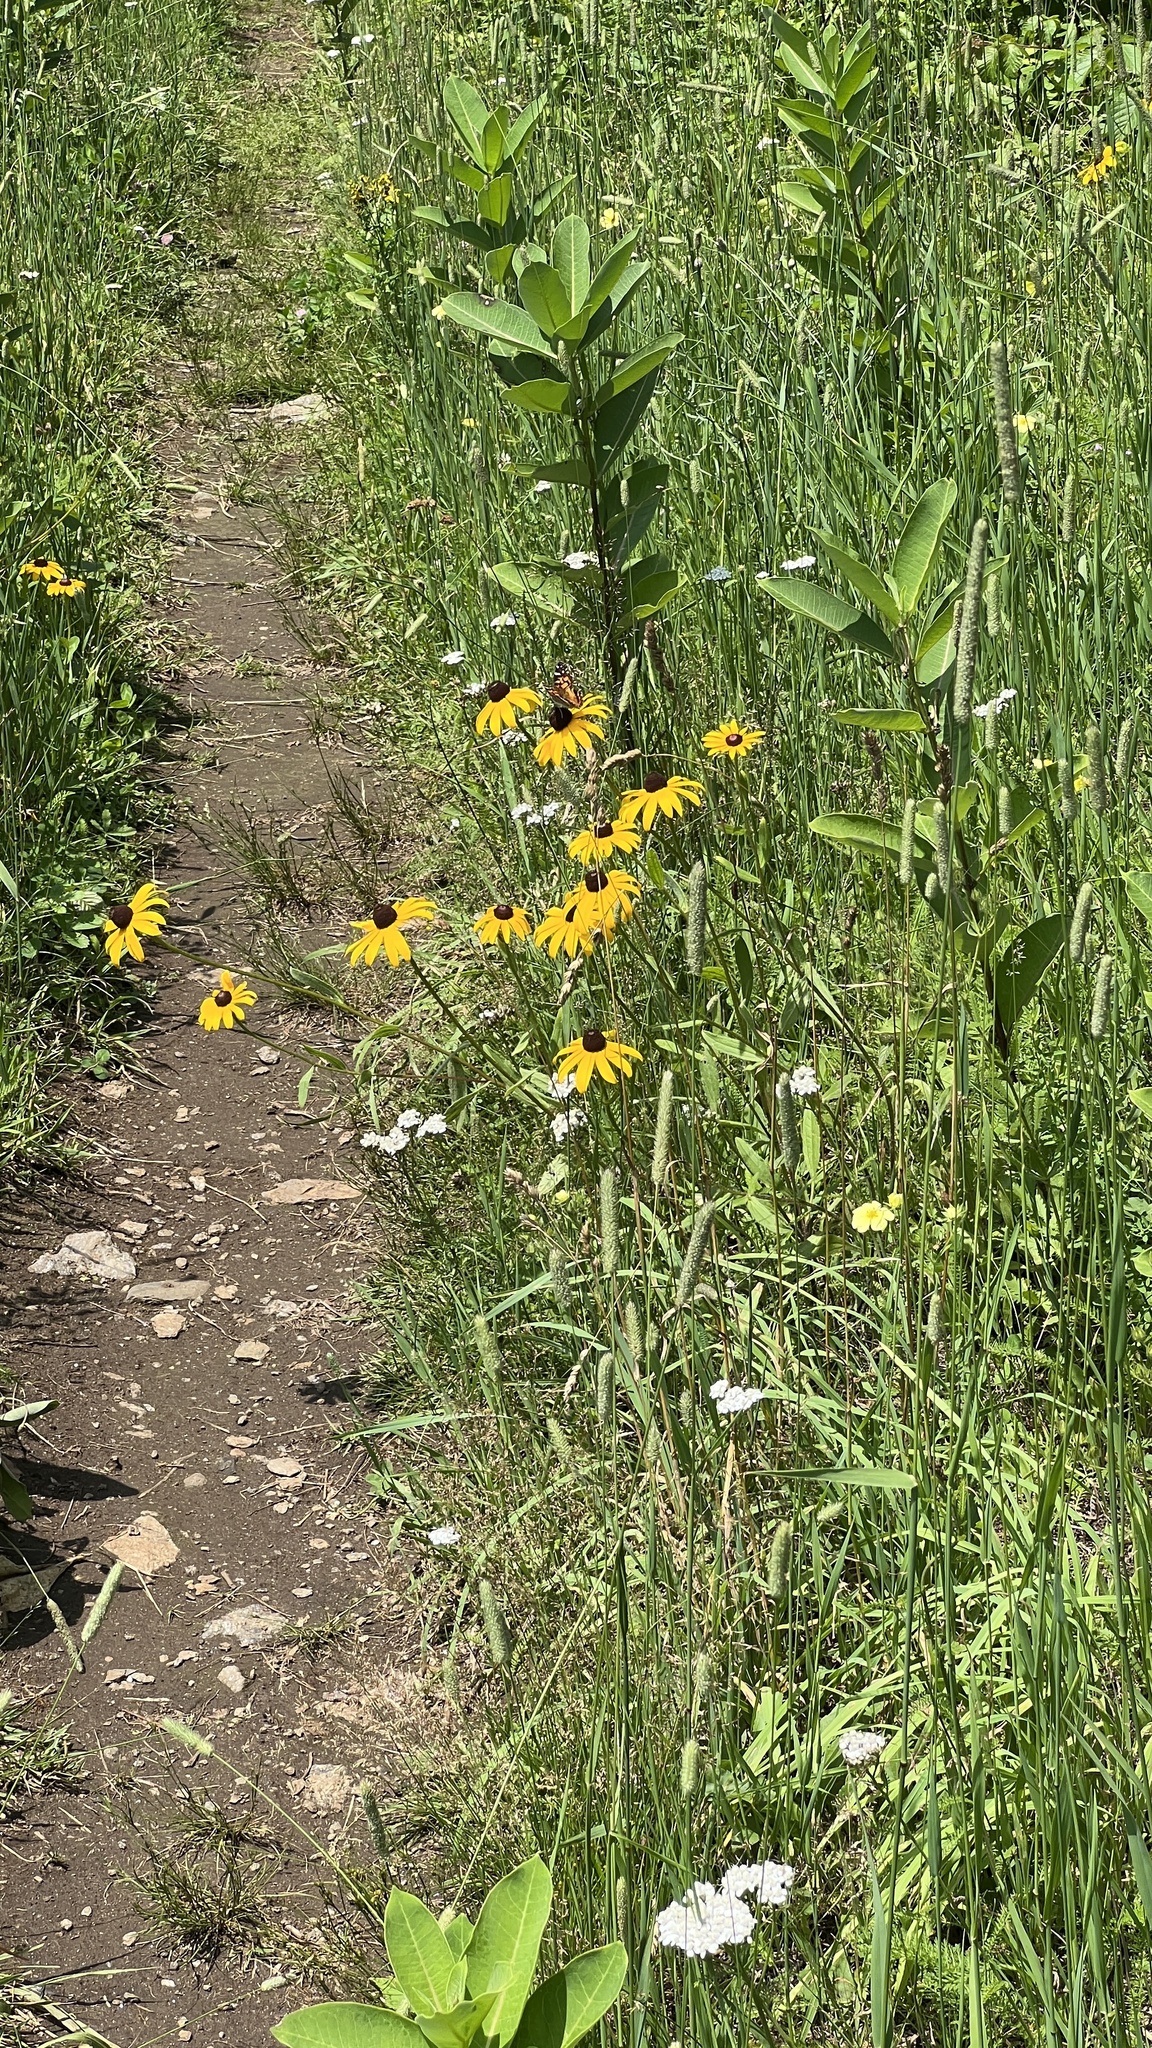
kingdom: Plantae
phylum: Tracheophyta
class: Magnoliopsida
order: Asterales
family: Asteraceae
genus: Rudbeckia
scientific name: Rudbeckia hirta
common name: Black-eyed-susan
